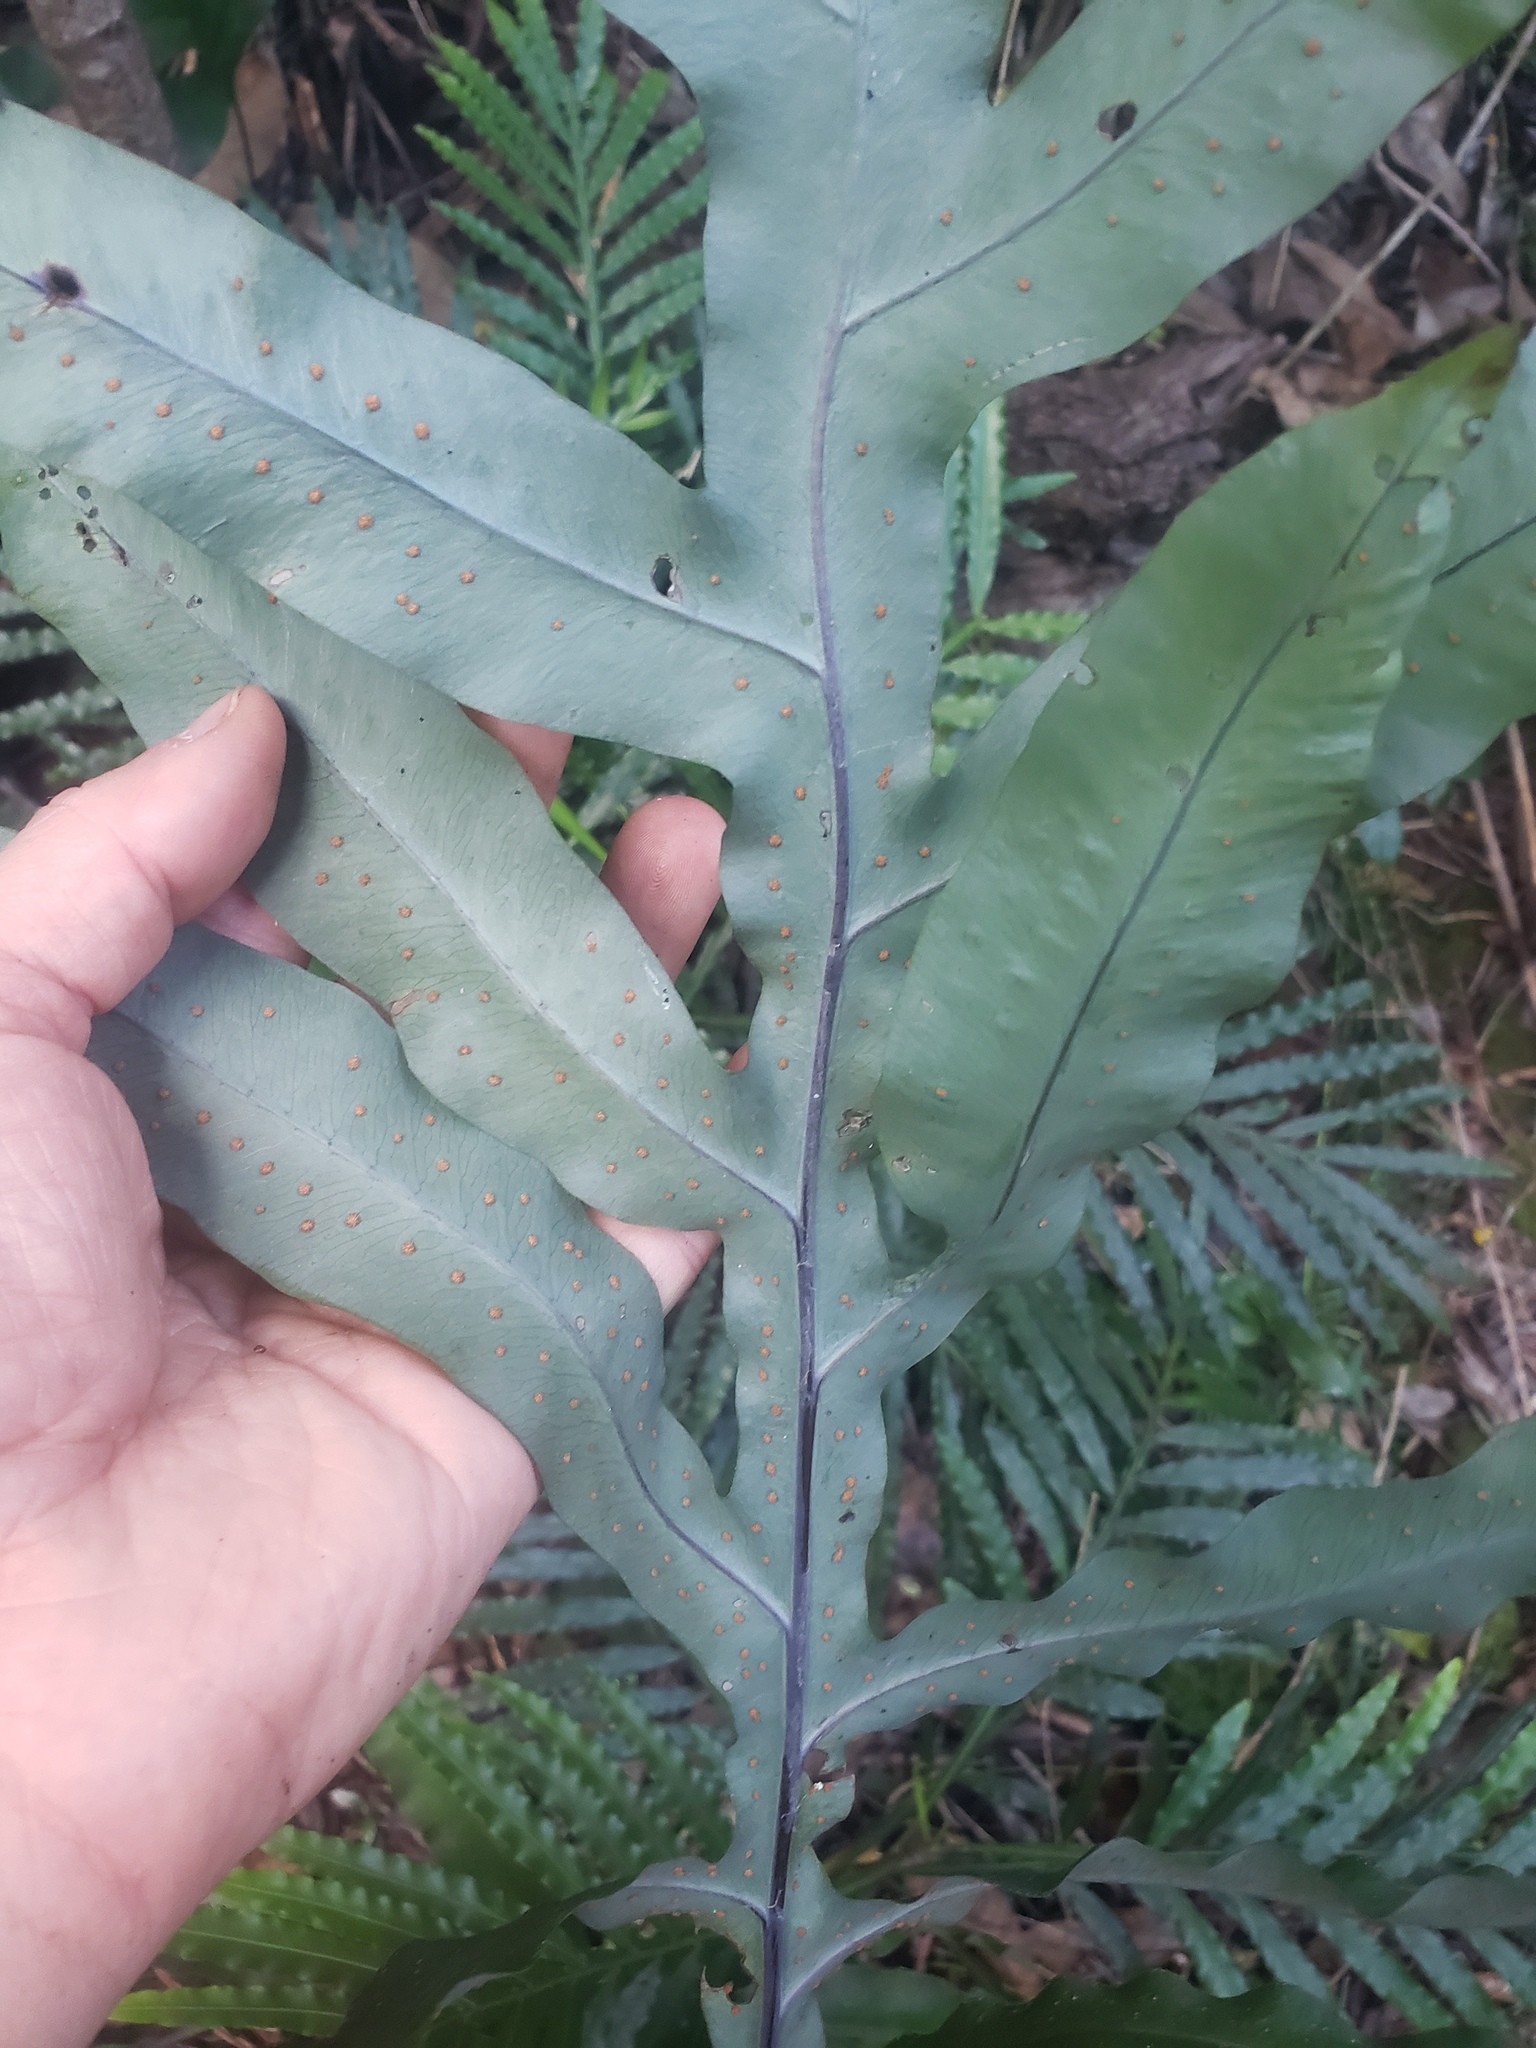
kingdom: Plantae
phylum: Tracheophyta
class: Polypodiopsida
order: Polypodiales
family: Polypodiaceae
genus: Phlebodium
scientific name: Phlebodium aureum
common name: Gold-foot fern
